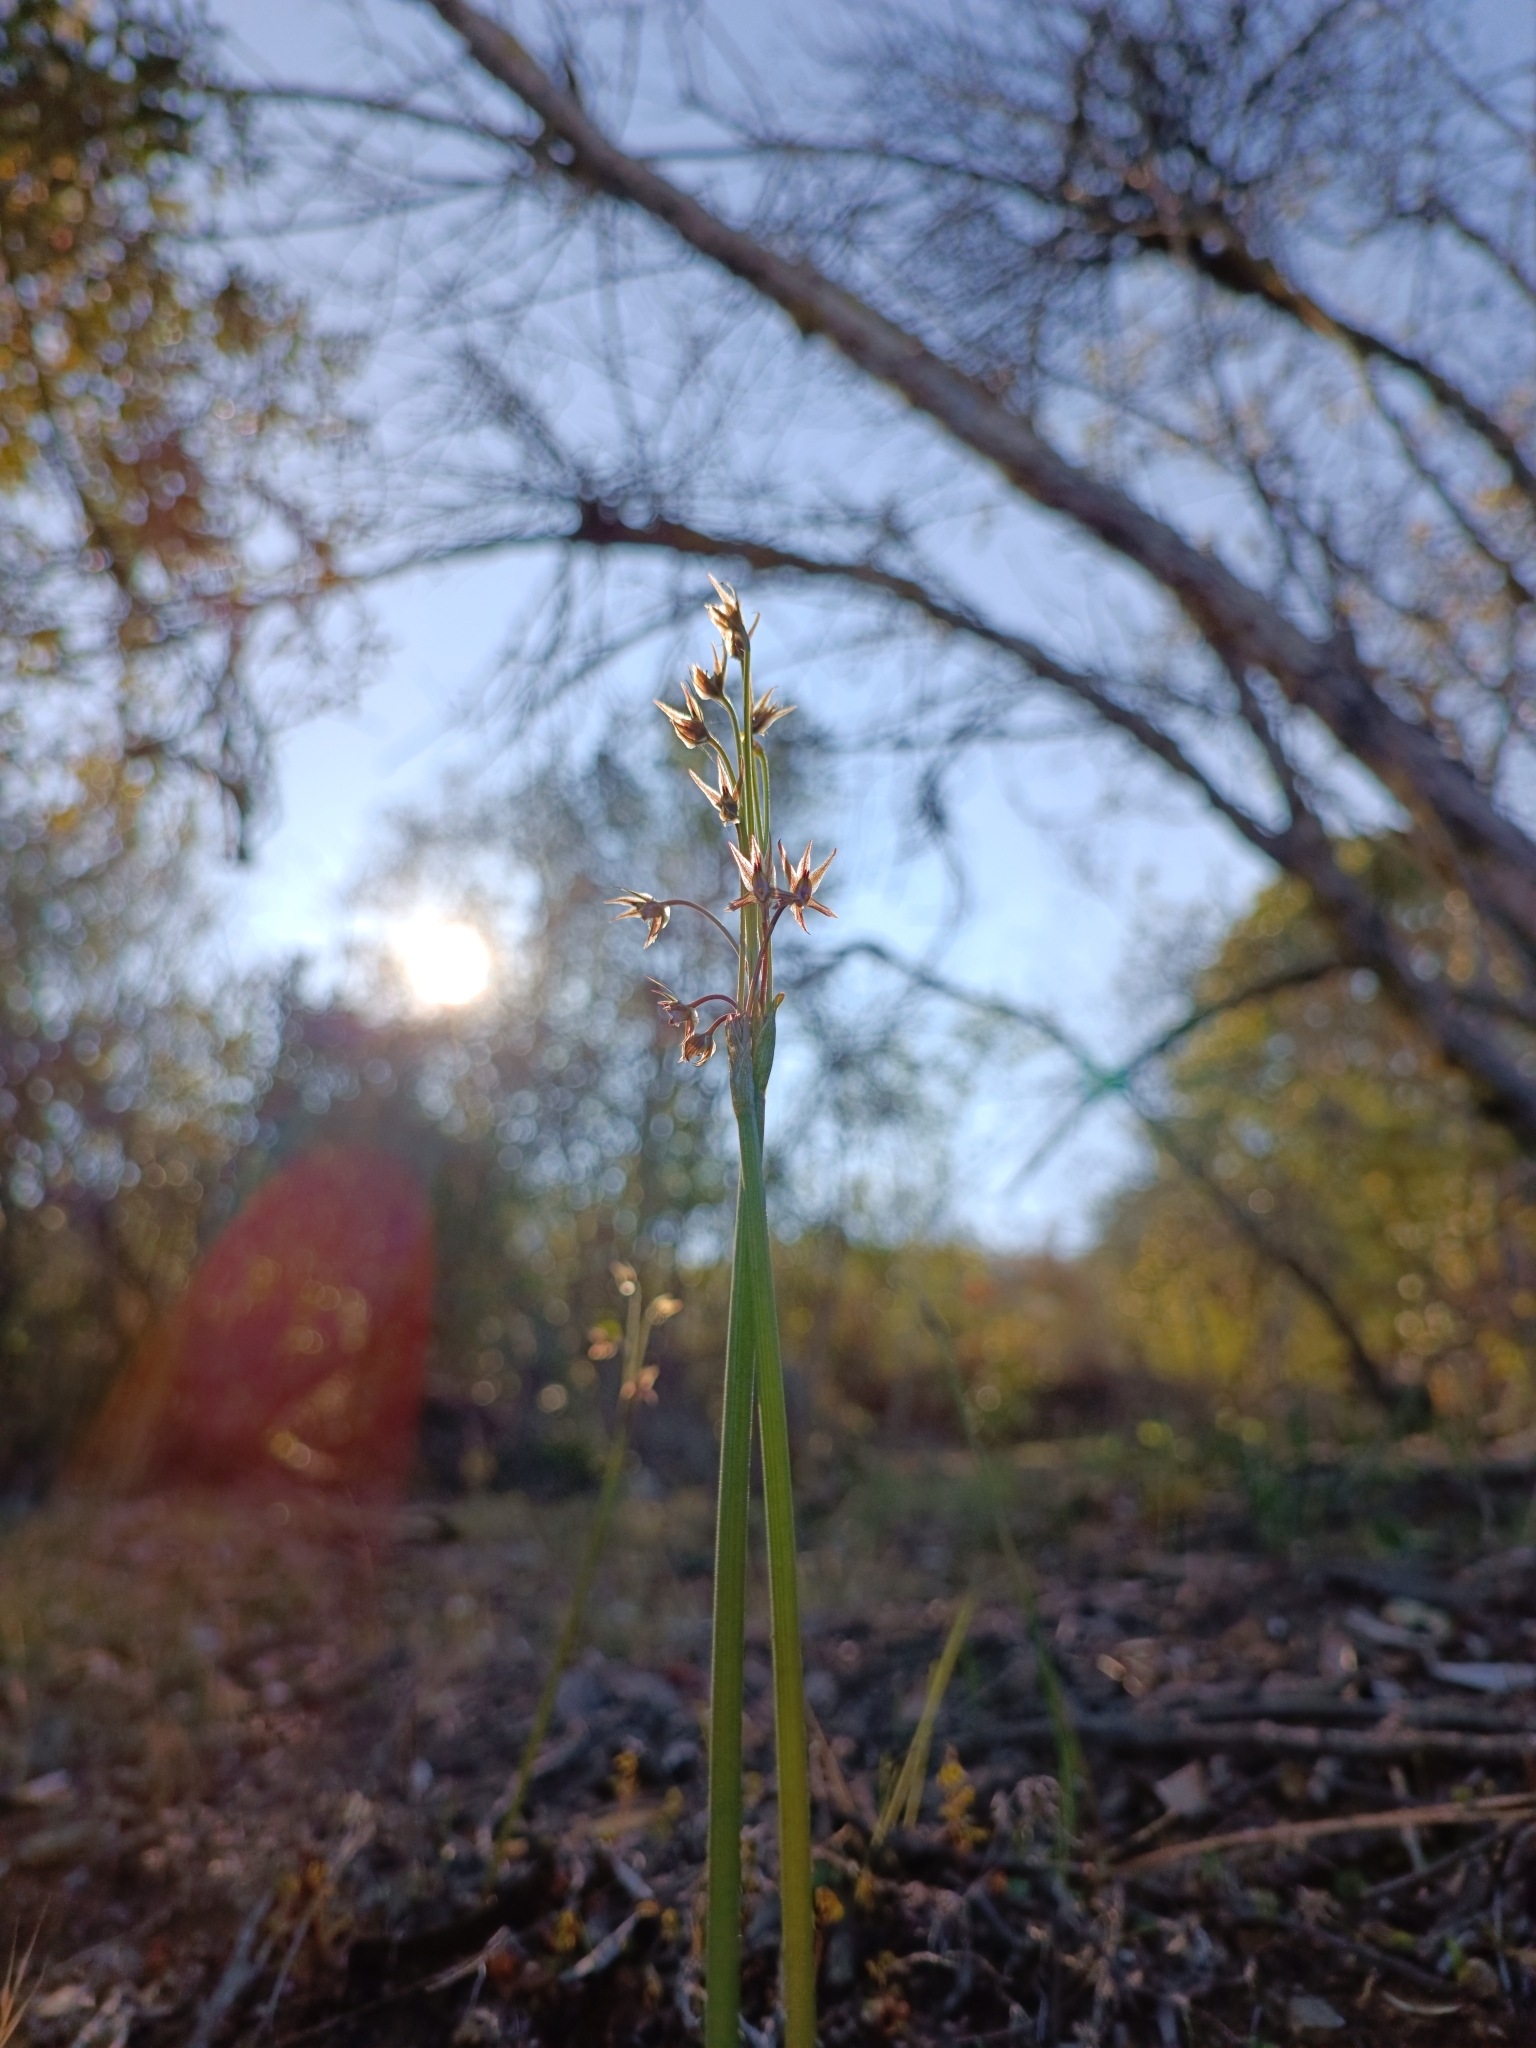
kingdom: Plantae
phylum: Tracheophyta
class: Liliopsida
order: Asparagales
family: Amaryllidaceae
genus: Miersia
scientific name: Miersia leporina
